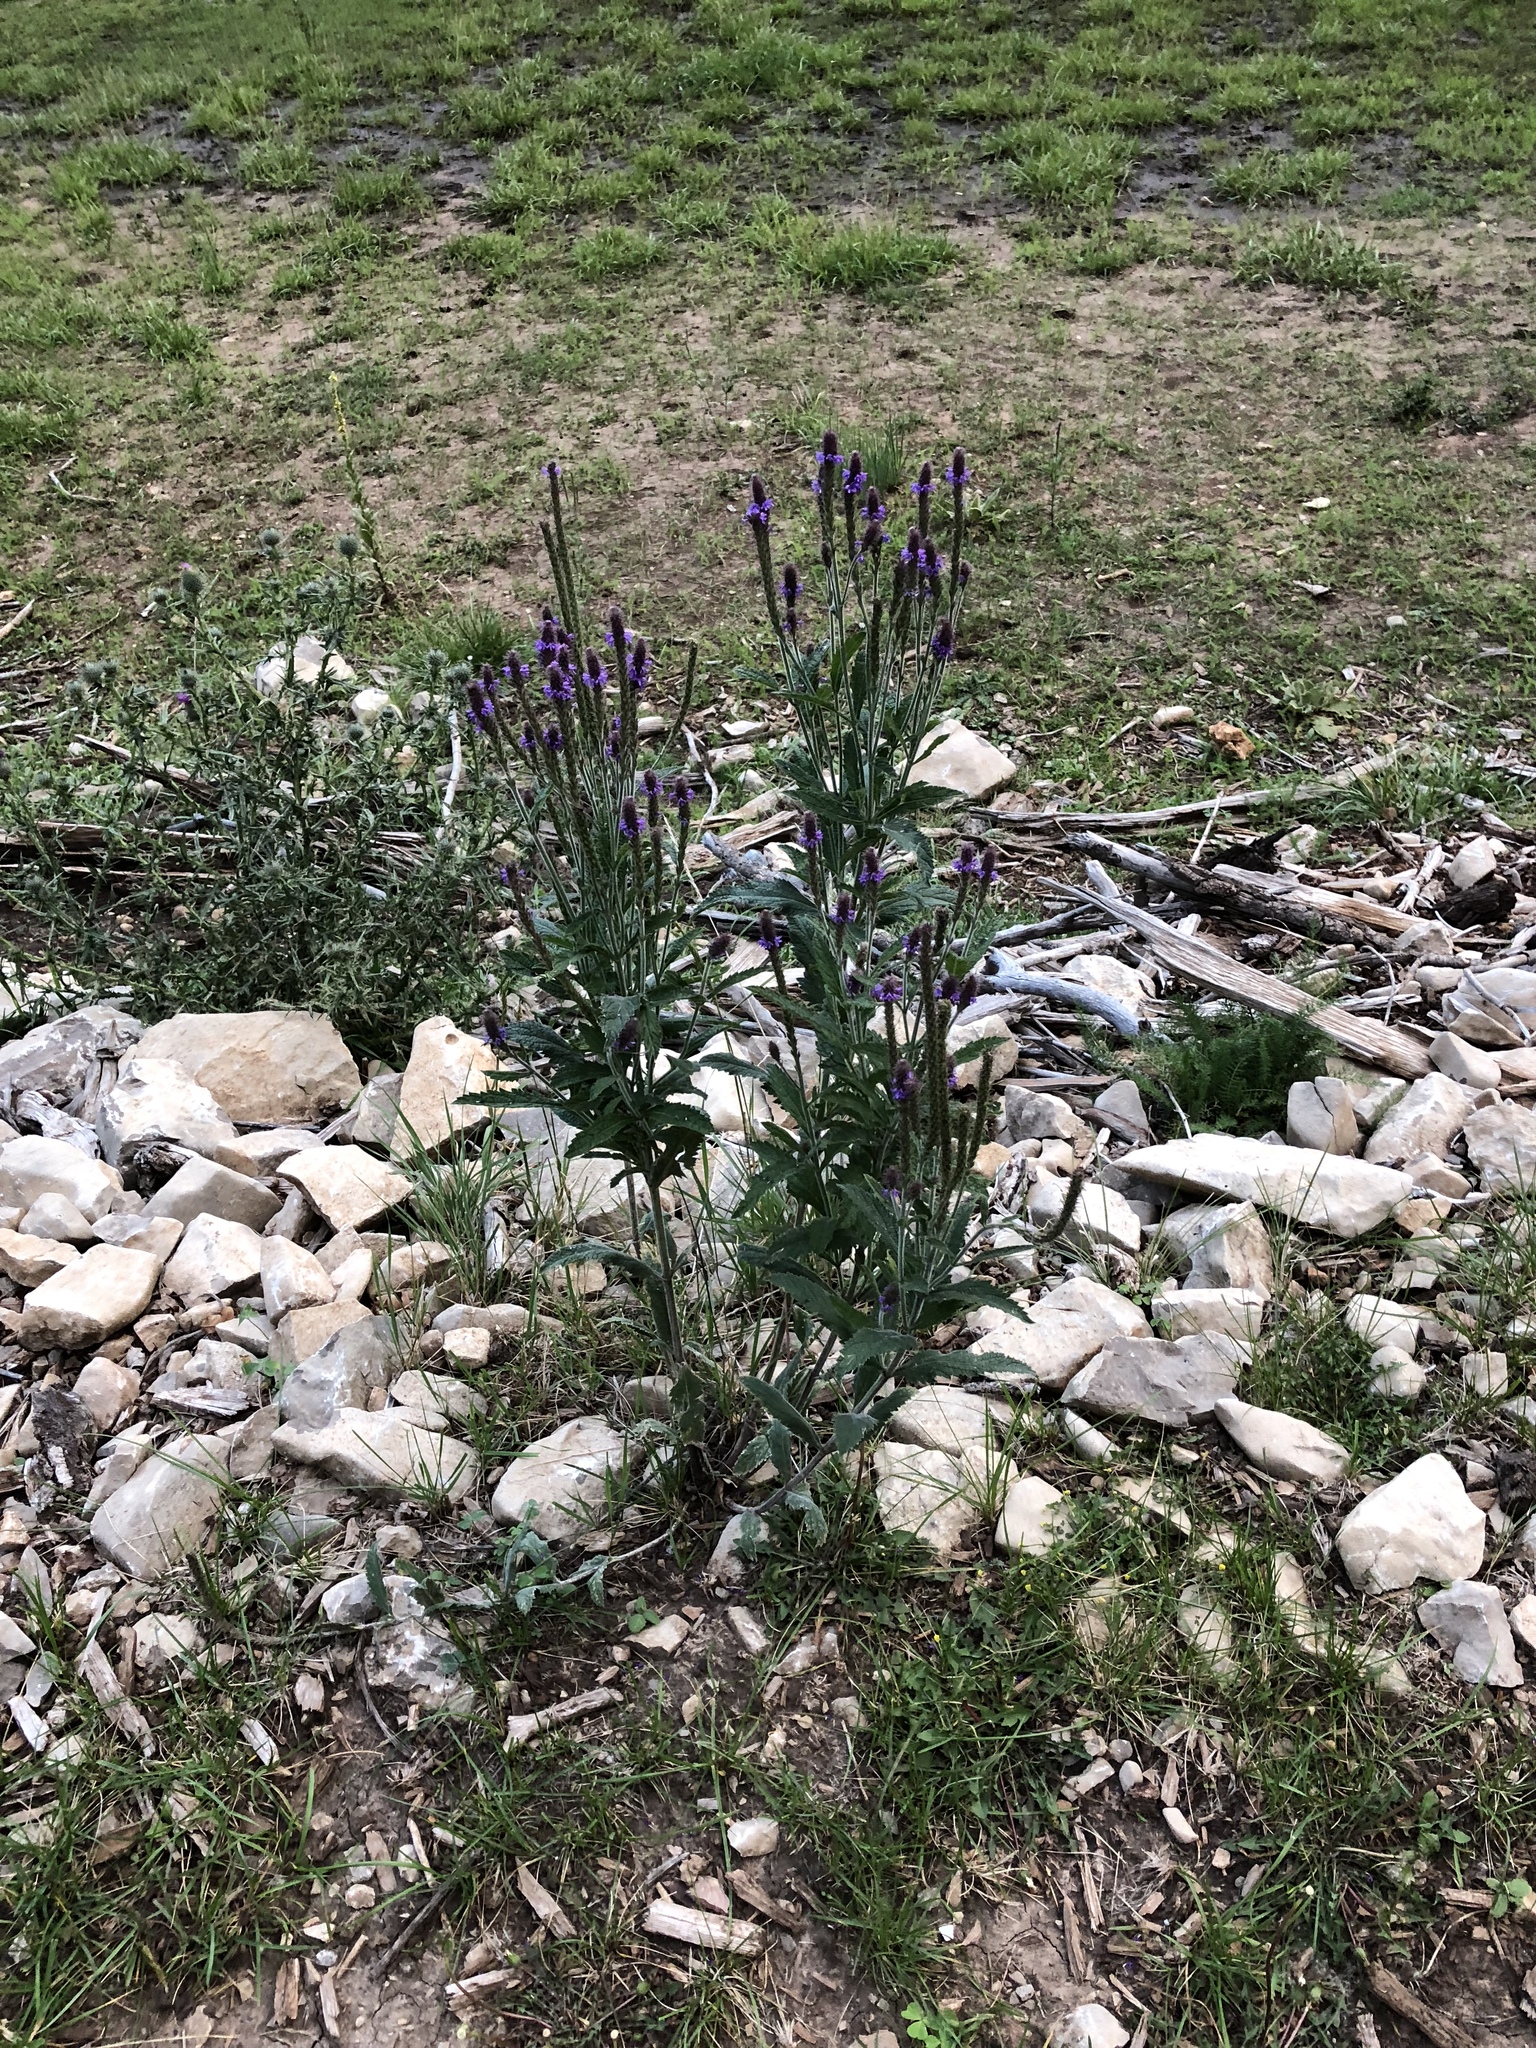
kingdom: Plantae
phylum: Tracheophyta
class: Magnoliopsida
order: Lamiales
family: Verbenaceae
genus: Verbena
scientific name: Verbena macdougalii
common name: New mexico vervain
